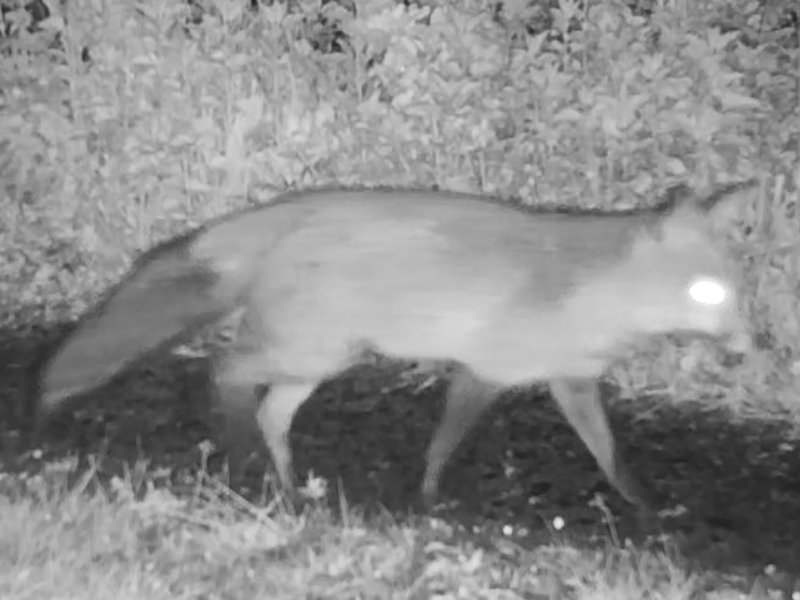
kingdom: Animalia
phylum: Chordata
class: Mammalia
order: Carnivora
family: Canidae
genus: Vulpes
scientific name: Vulpes vulpes
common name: Red fox
